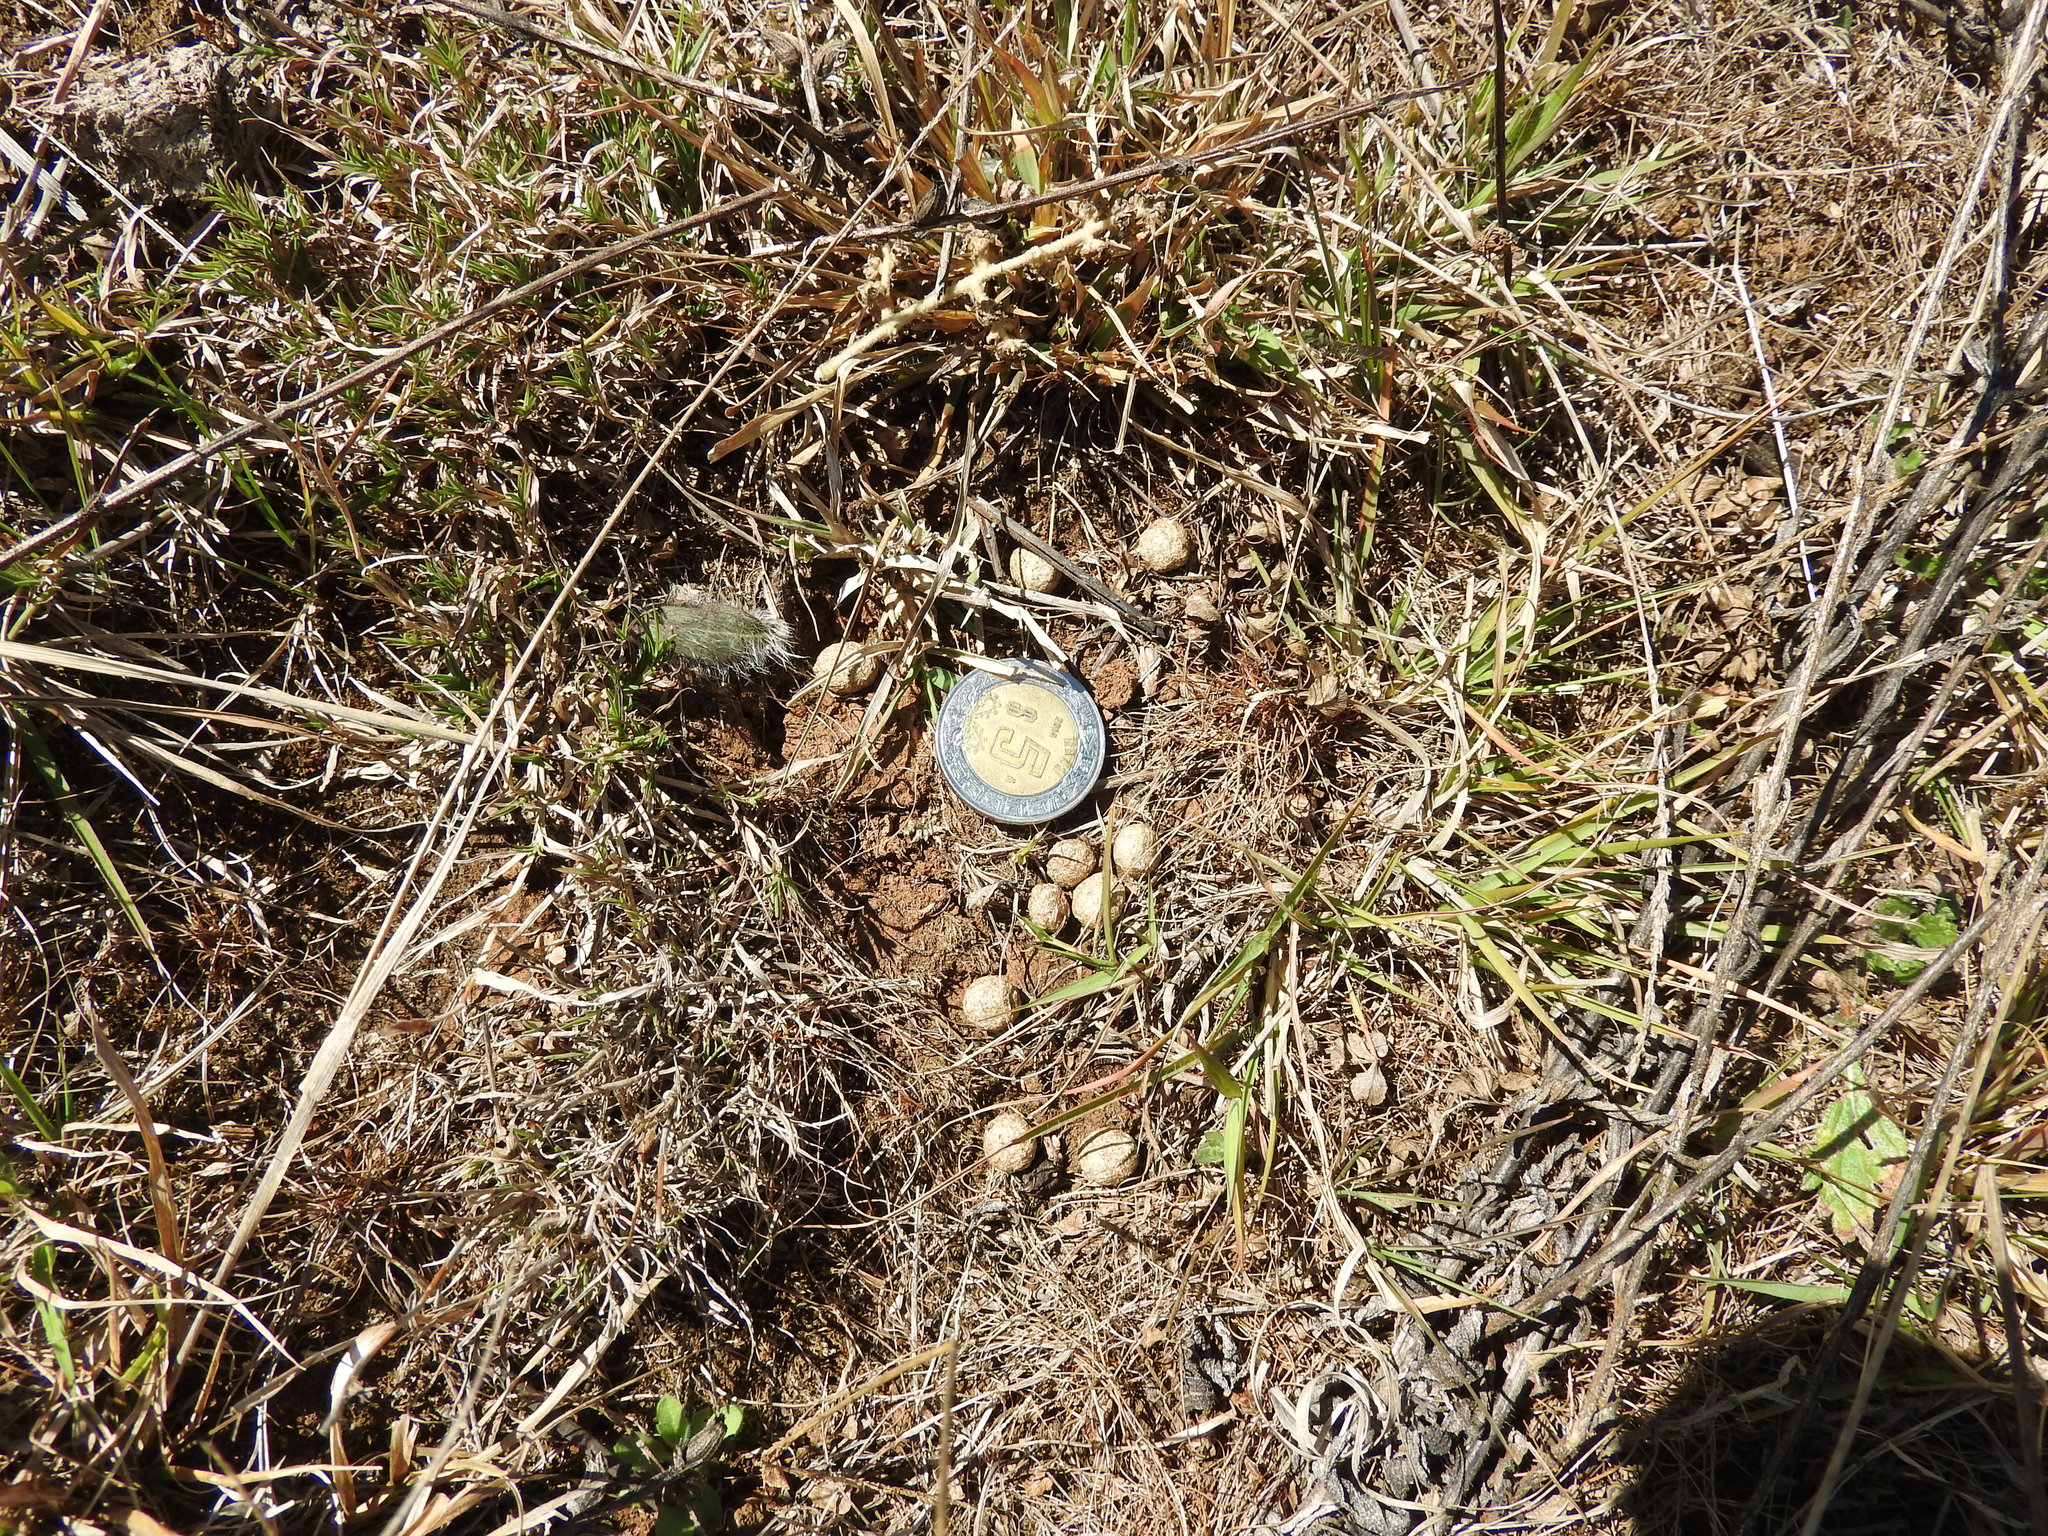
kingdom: Animalia
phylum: Chordata
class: Mammalia
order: Lagomorpha
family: Leporidae
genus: Sylvilagus
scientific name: Sylvilagus
